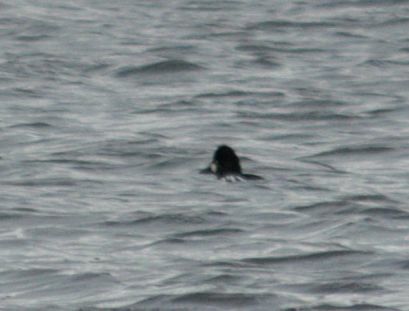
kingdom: Animalia
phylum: Chordata
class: Aves
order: Anseriformes
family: Anatidae
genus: Bucephala
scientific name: Bucephala clangula
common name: Common goldeneye
